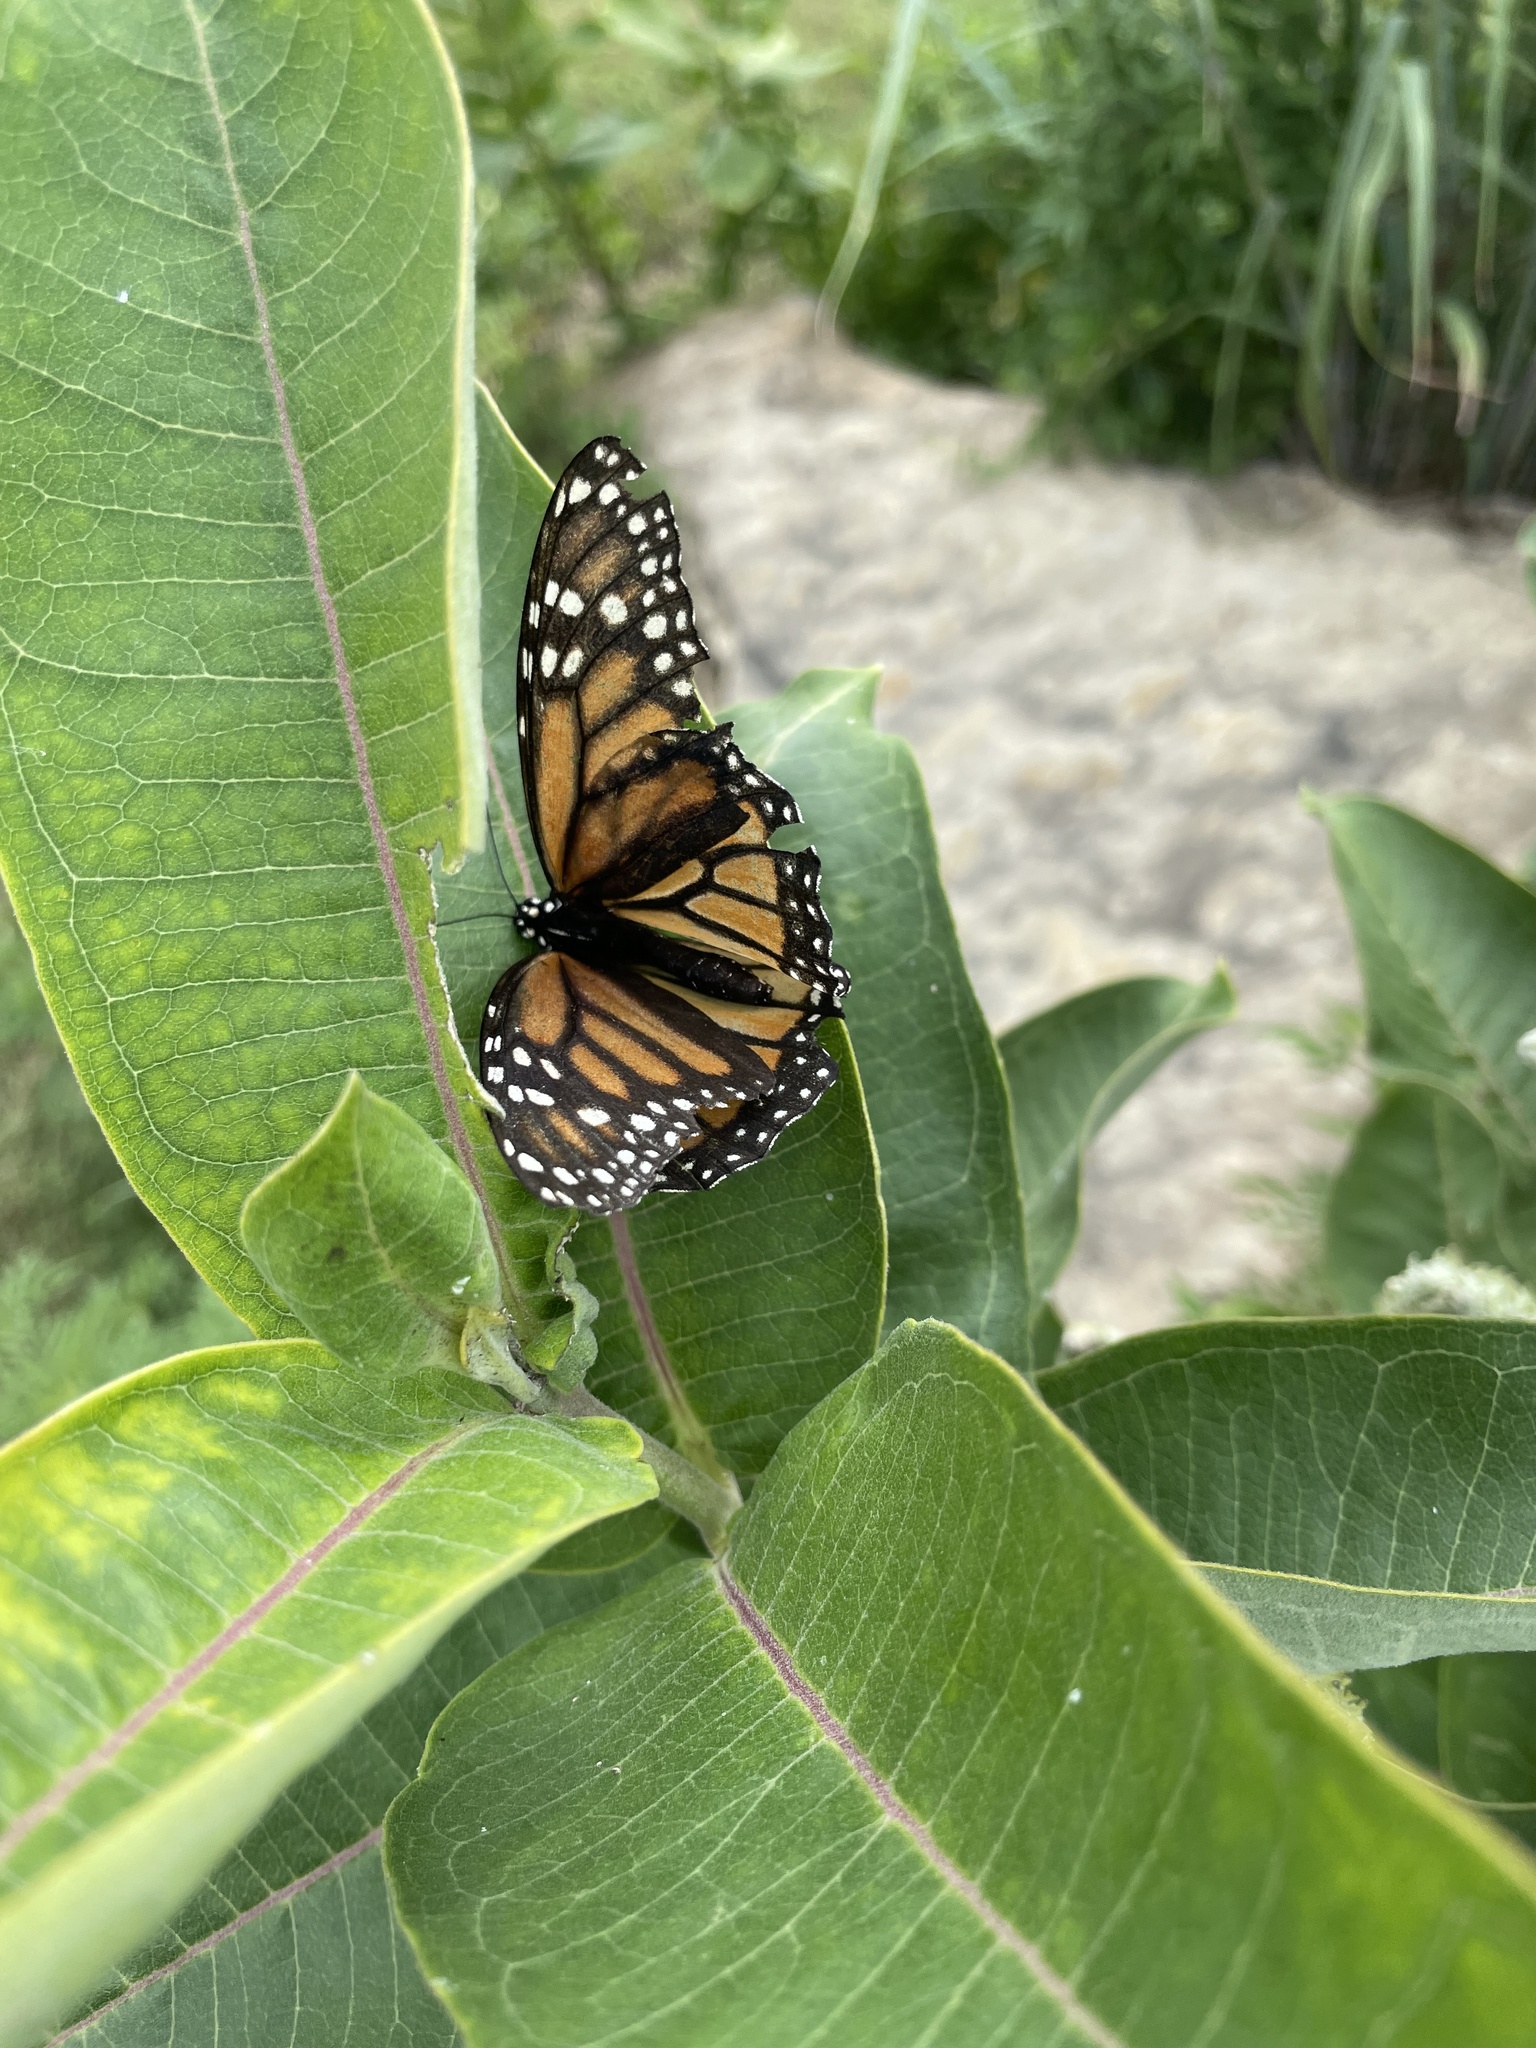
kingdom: Animalia
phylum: Arthropoda
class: Insecta
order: Lepidoptera
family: Nymphalidae
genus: Danaus
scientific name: Danaus plexippus
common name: Monarch
